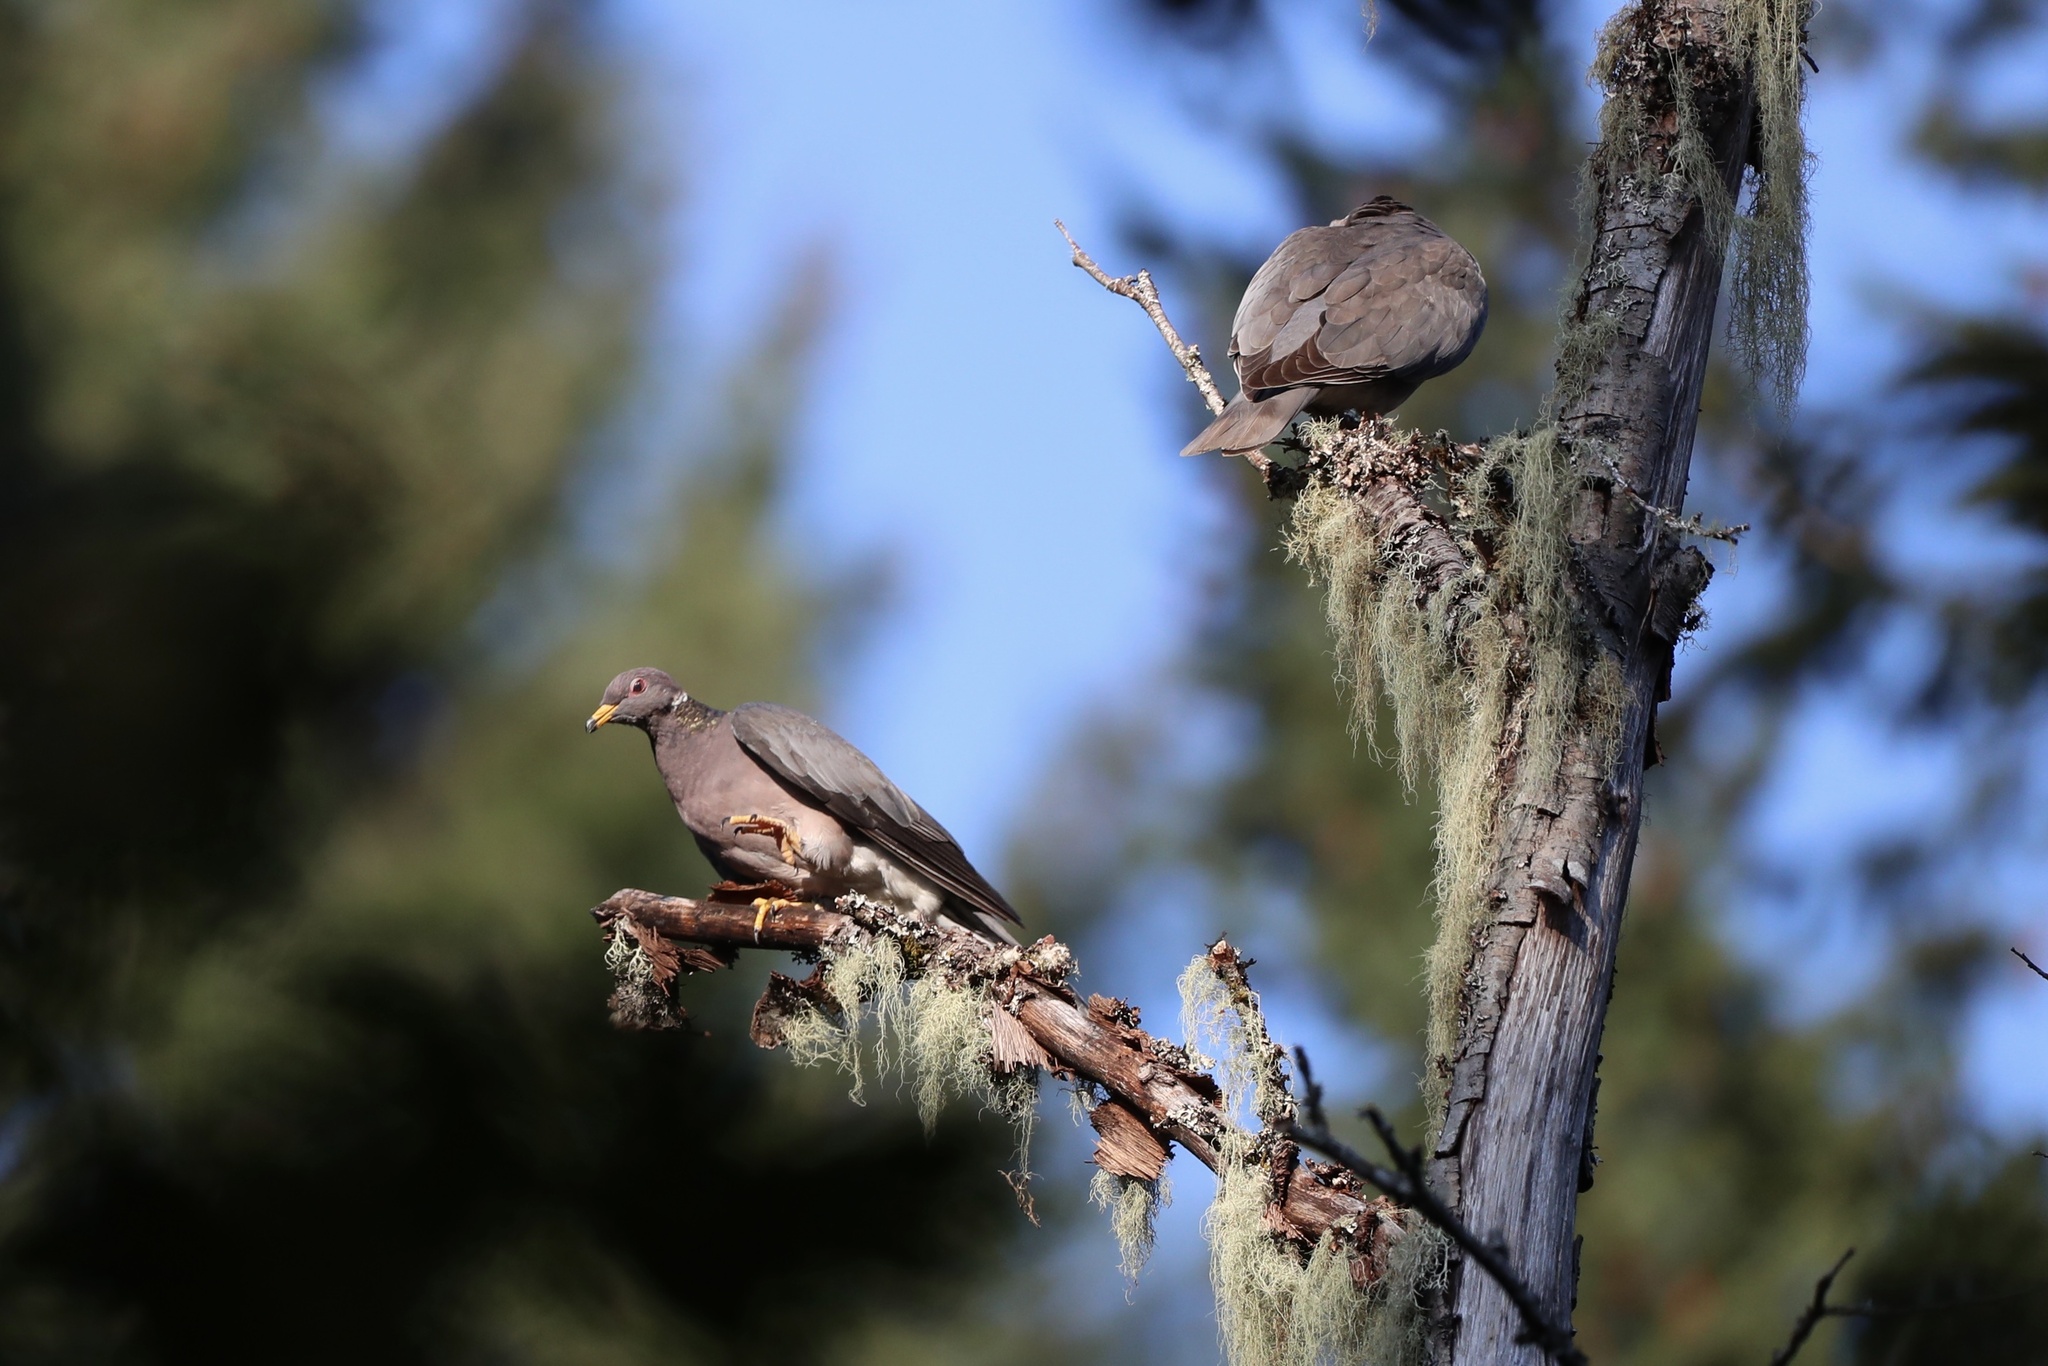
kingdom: Animalia
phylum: Chordata
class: Aves
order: Columbiformes
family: Columbidae
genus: Patagioenas
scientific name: Patagioenas fasciata
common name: Band-tailed pigeon
